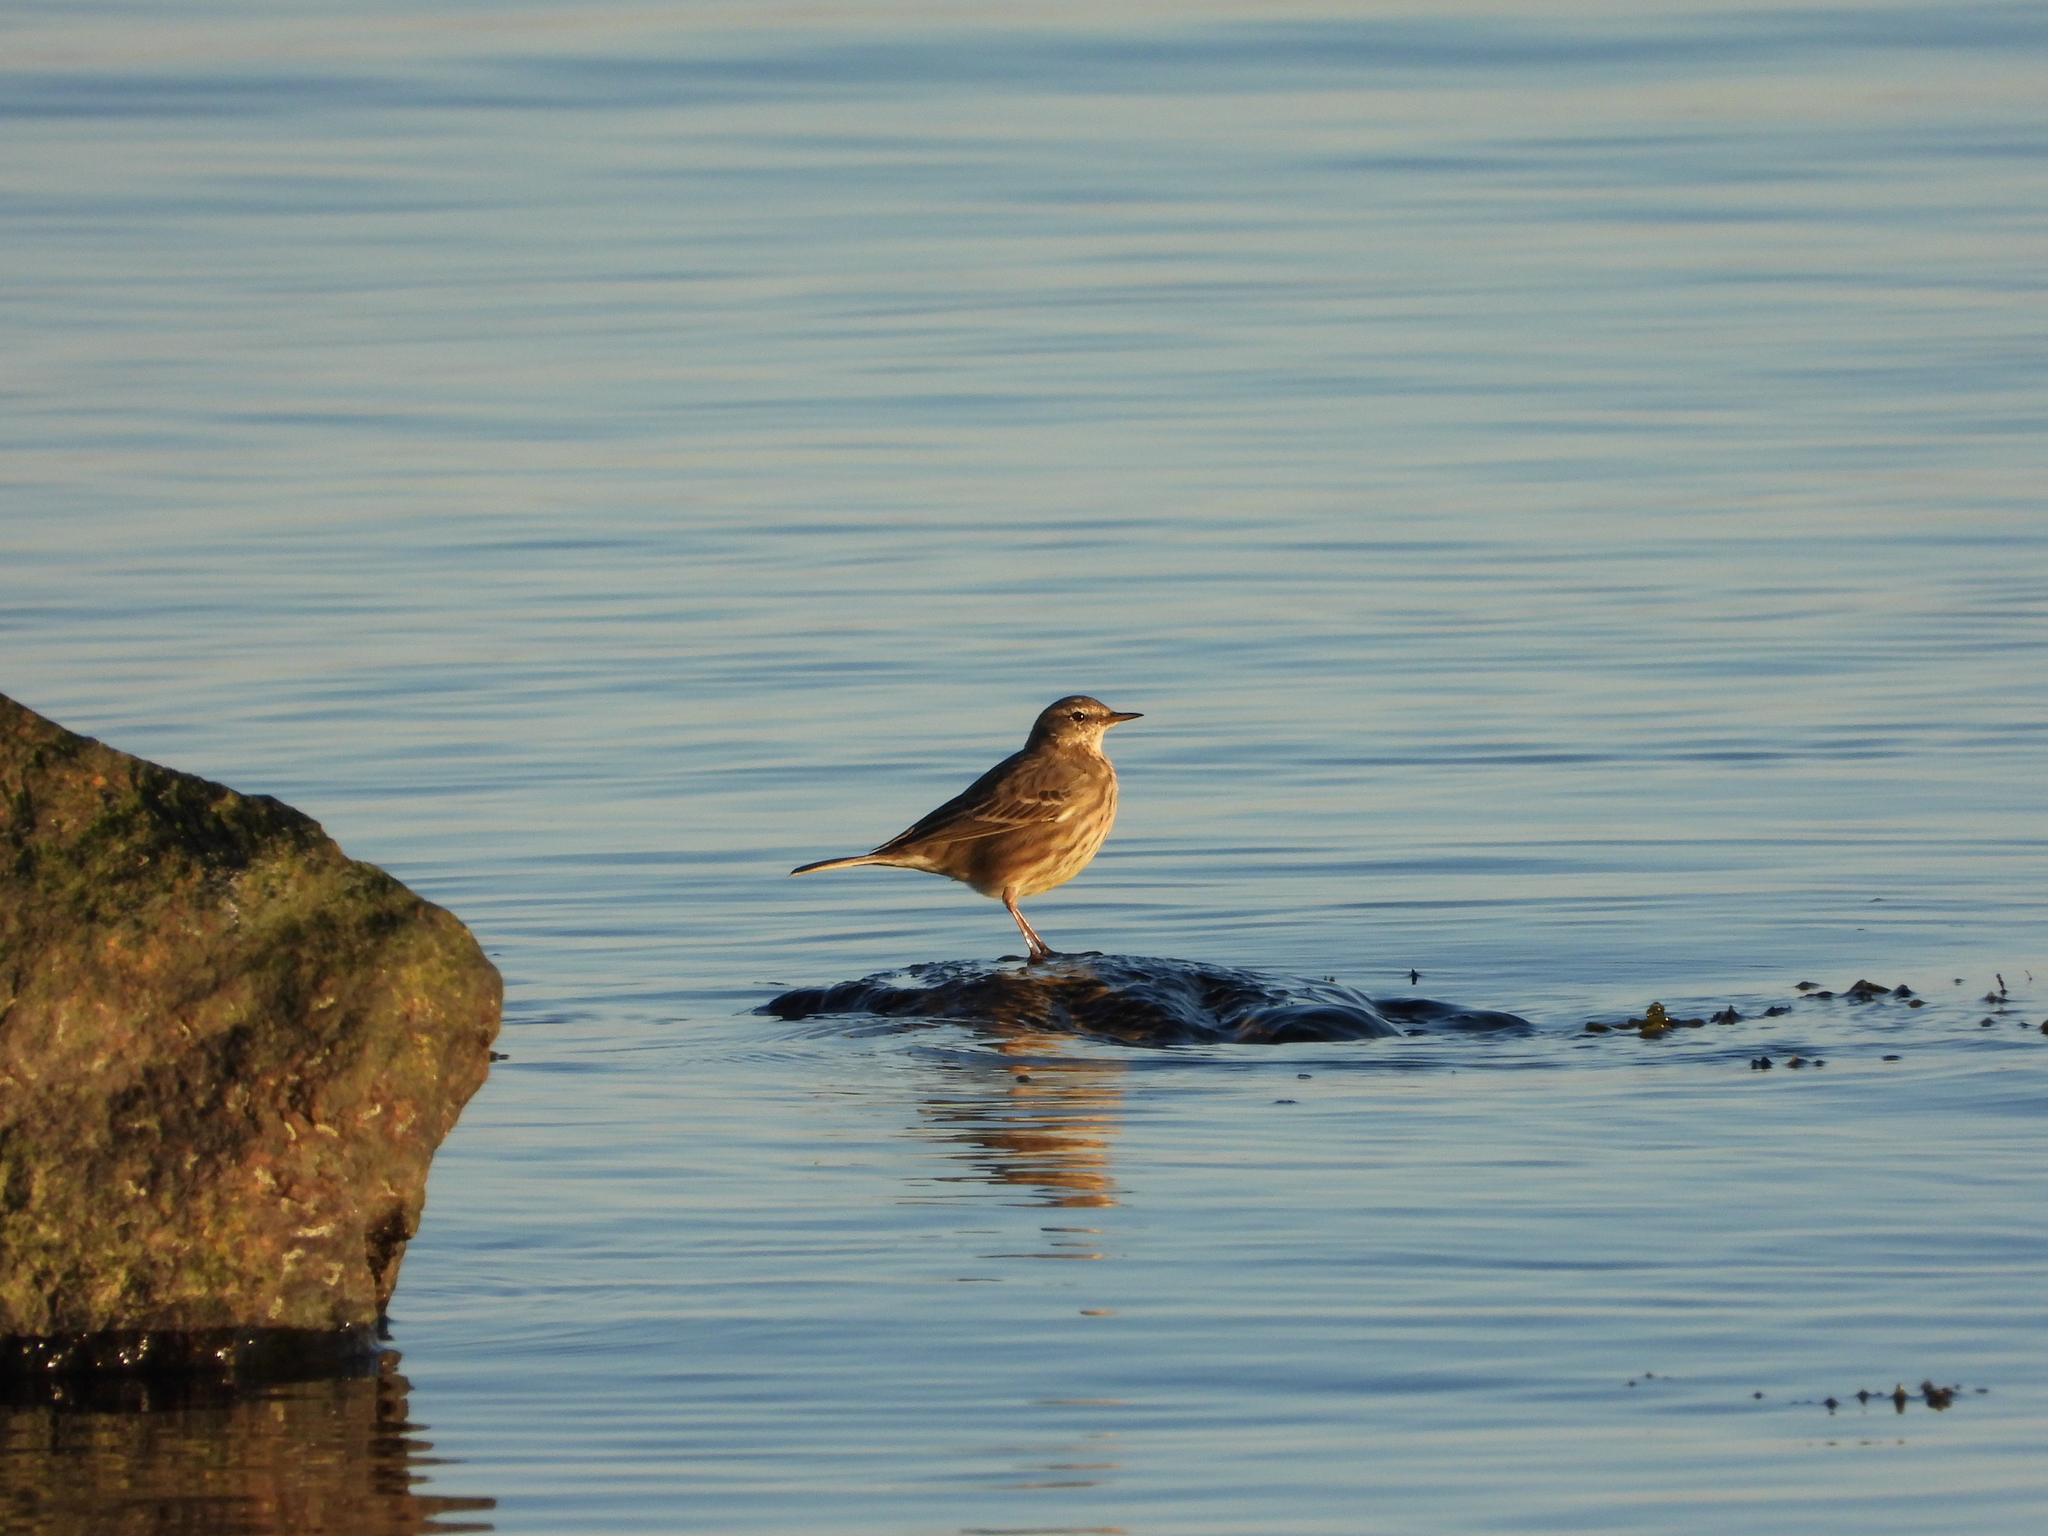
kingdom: Animalia
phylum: Chordata
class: Aves
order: Passeriformes
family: Motacillidae
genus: Anthus
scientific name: Anthus petrosus
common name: Eurasian rock pipit
